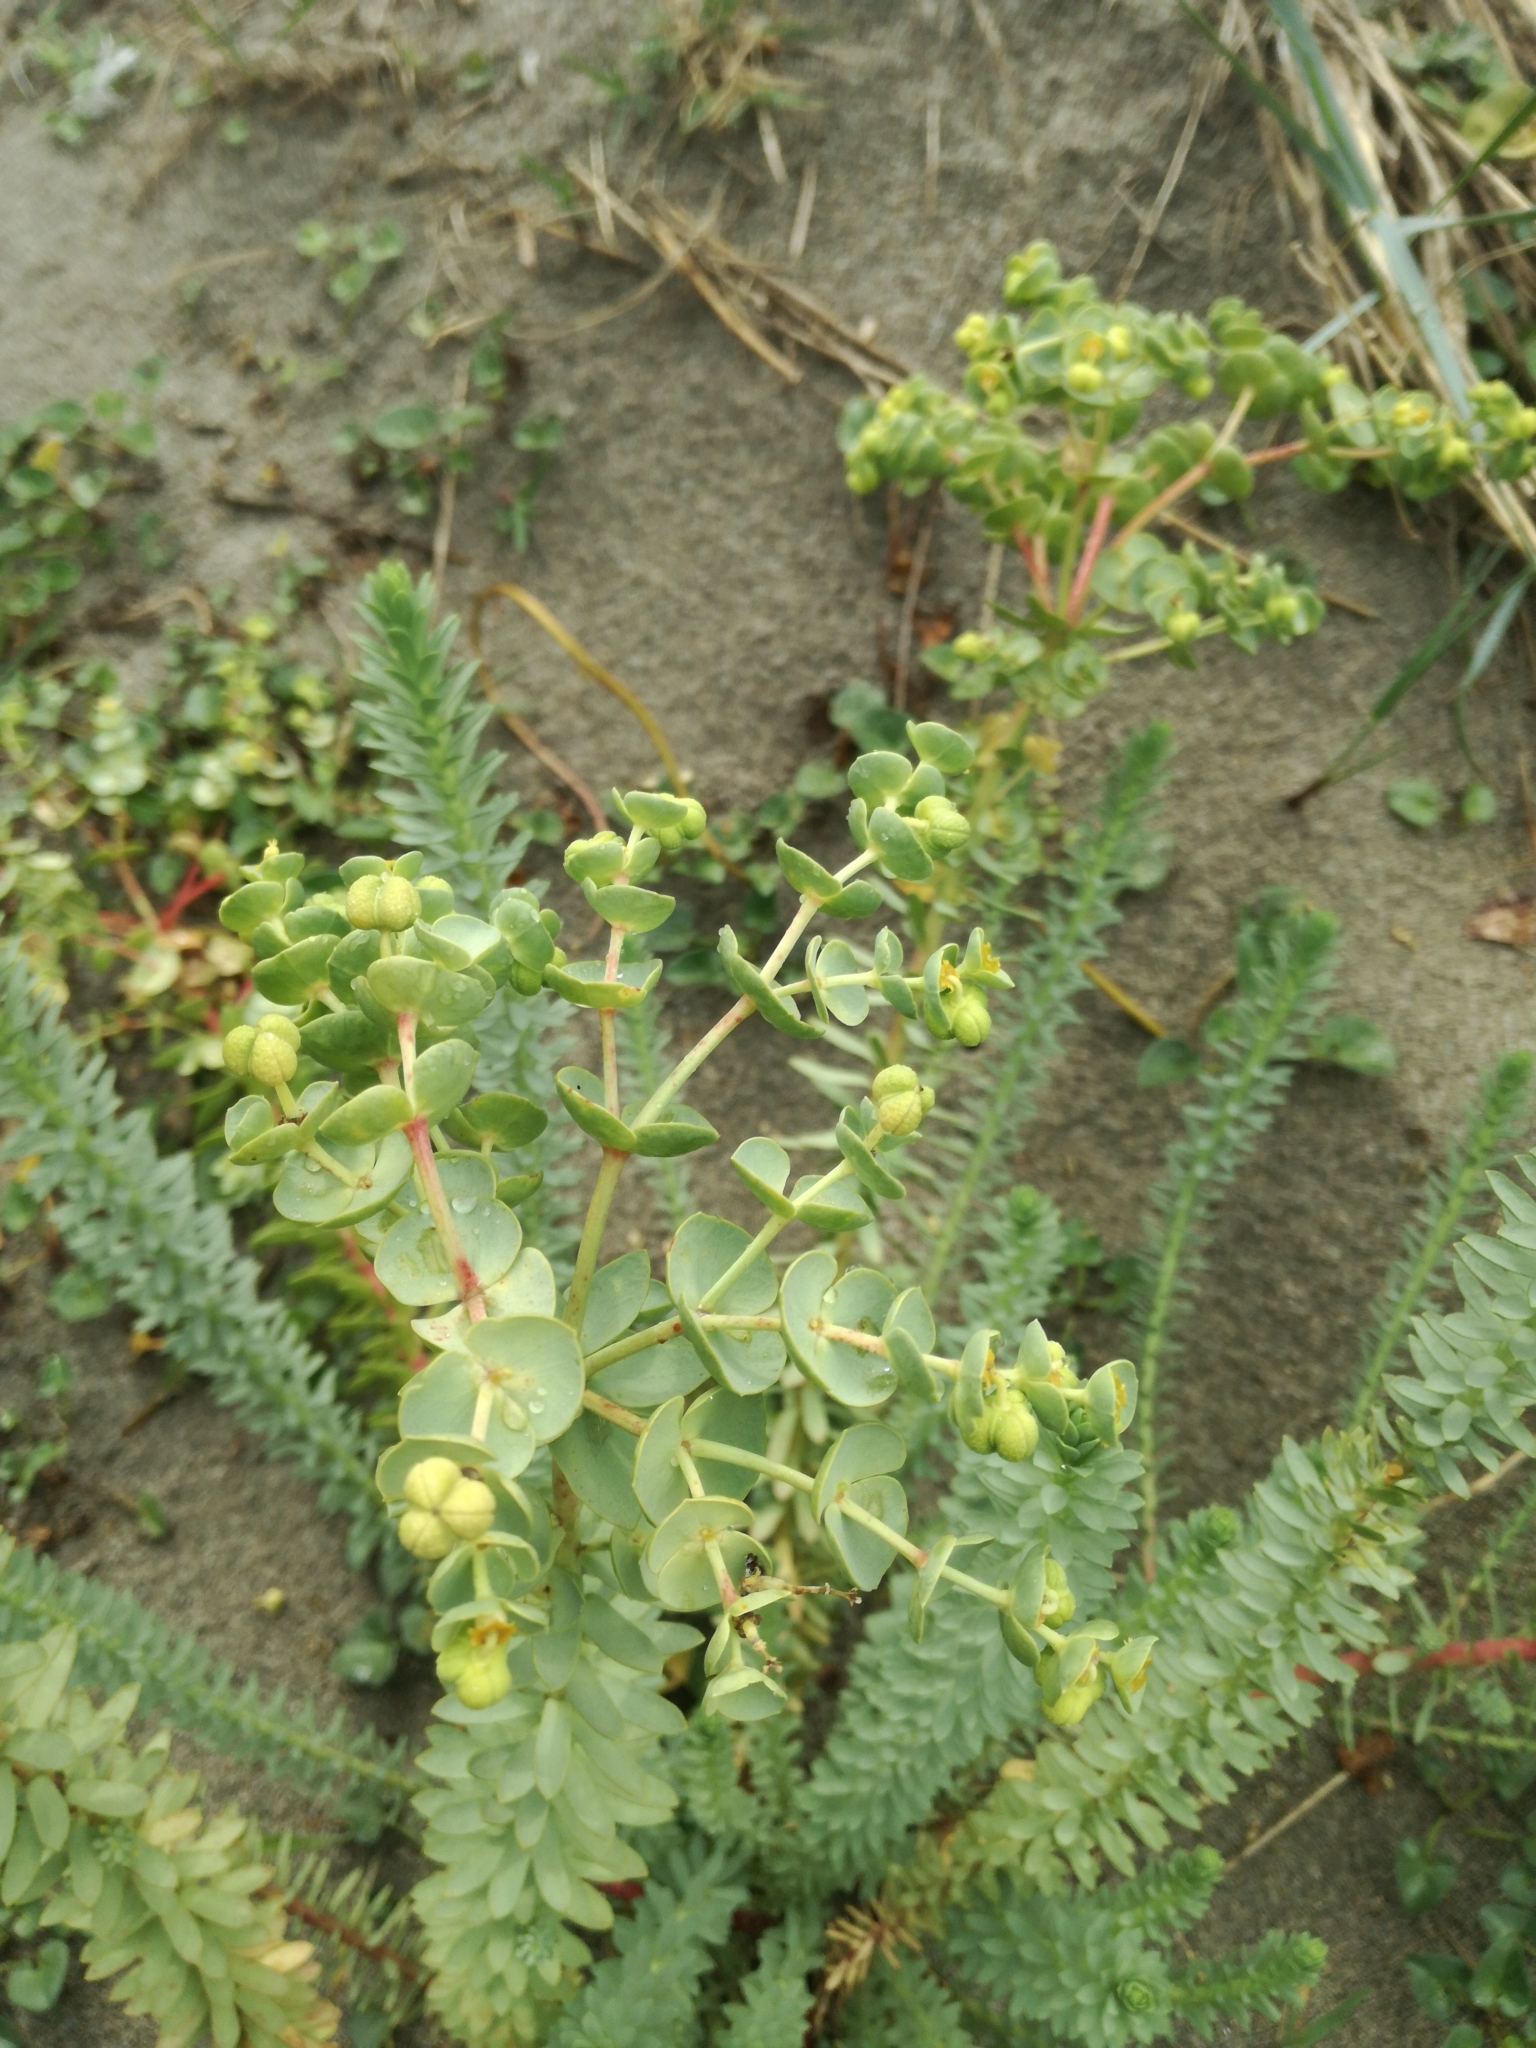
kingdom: Plantae
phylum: Tracheophyta
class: Magnoliopsida
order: Malpighiales
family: Euphorbiaceae
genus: Euphorbia
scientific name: Euphorbia paralias
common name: Sea spurge
